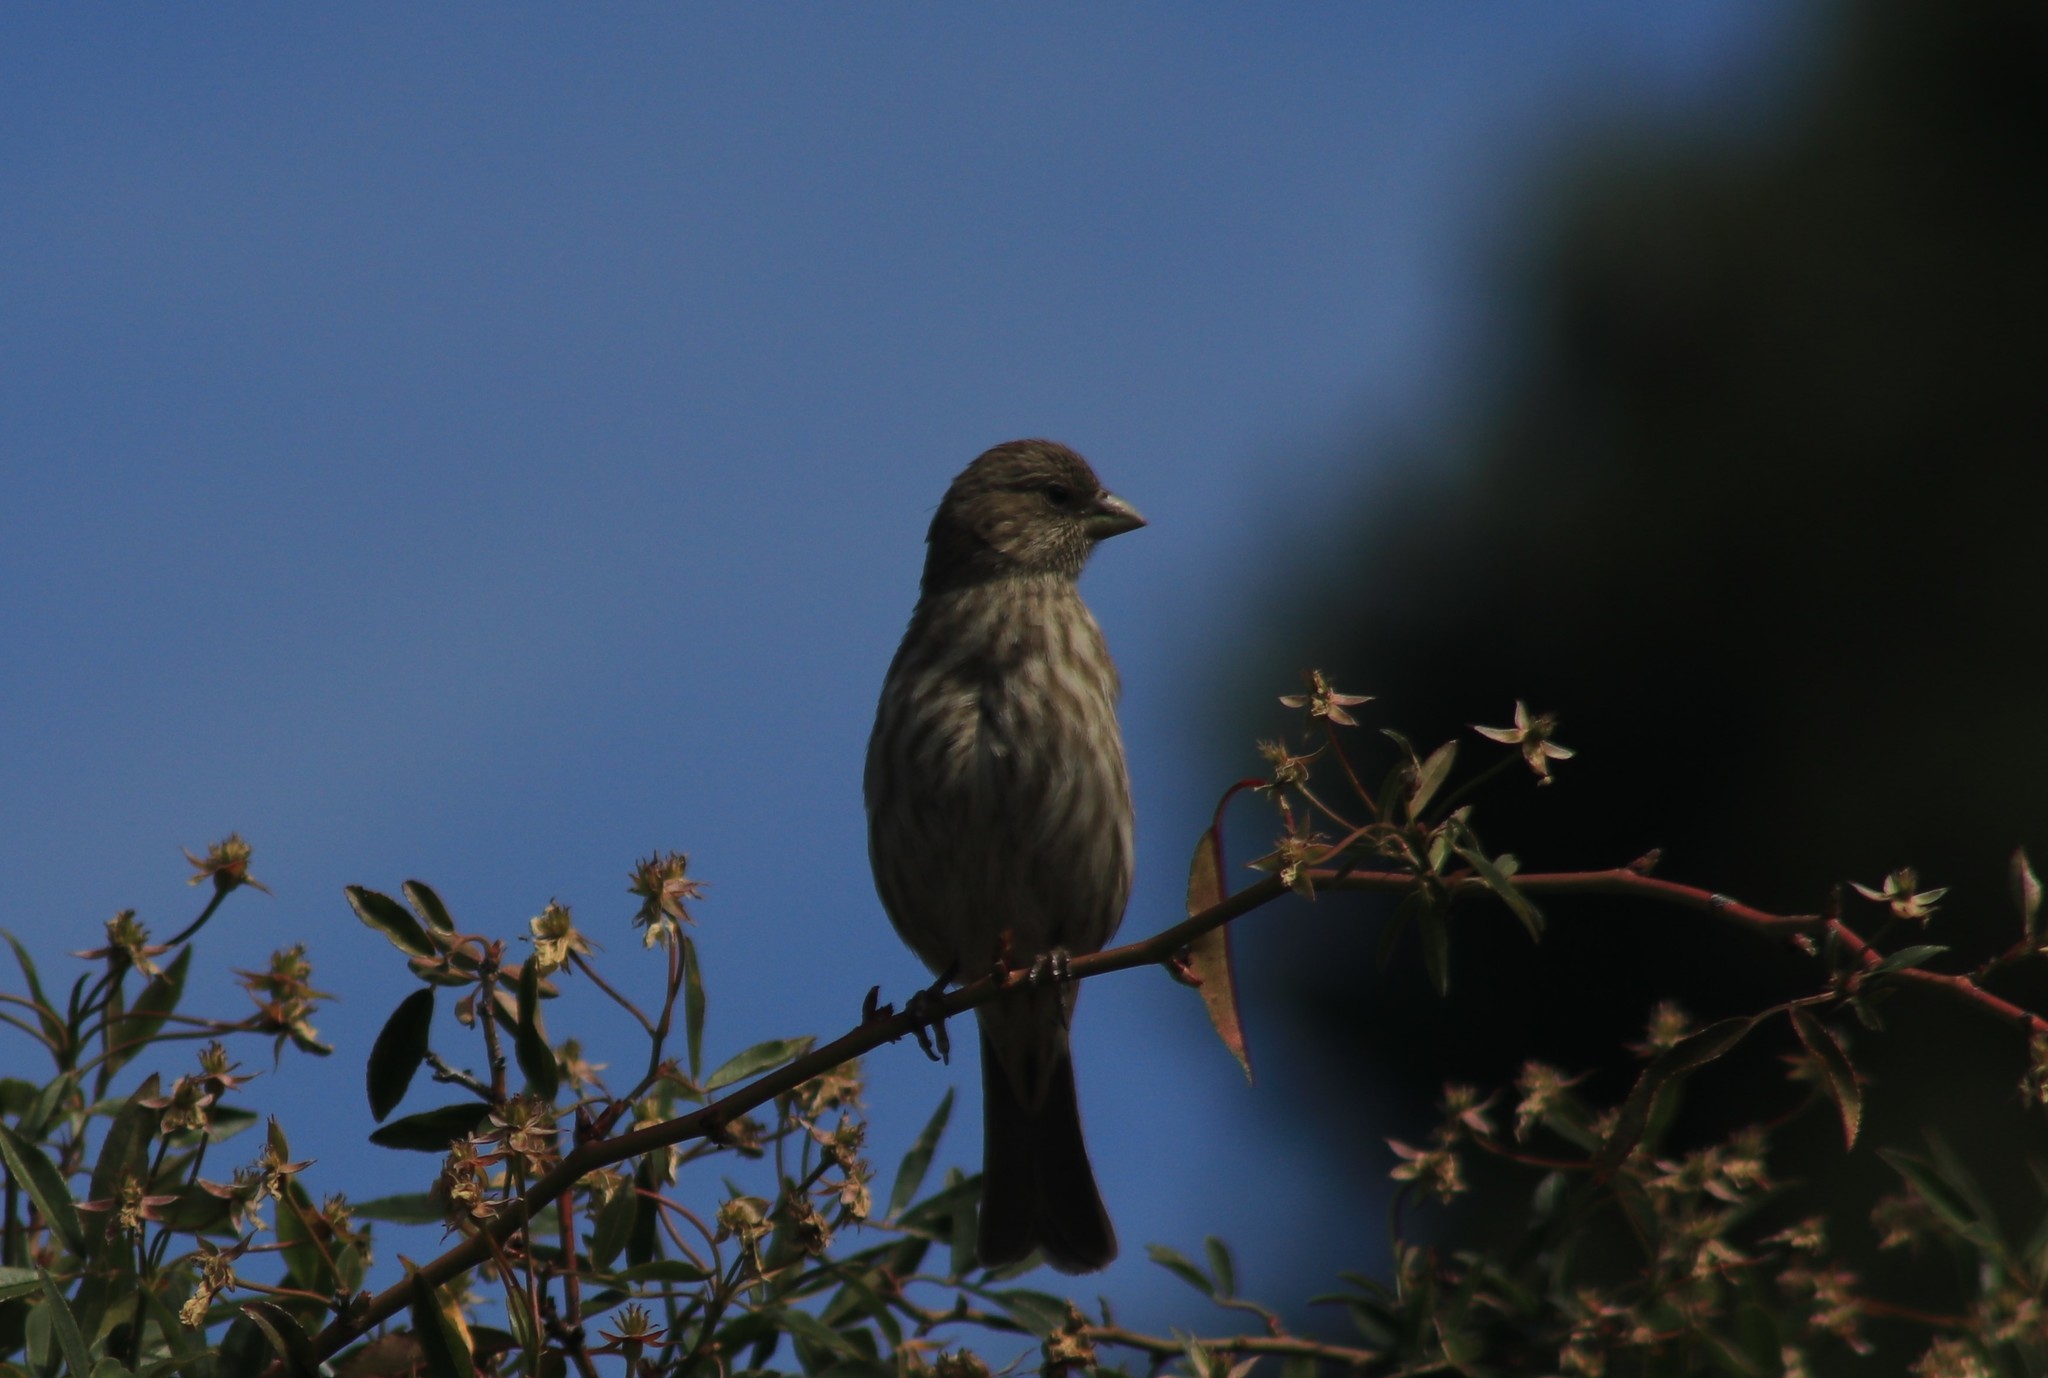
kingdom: Animalia
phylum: Chordata
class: Aves
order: Passeriformes
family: Fringillidae
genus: Haemorhous
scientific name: Haemorhous mexicanus
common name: House finch
